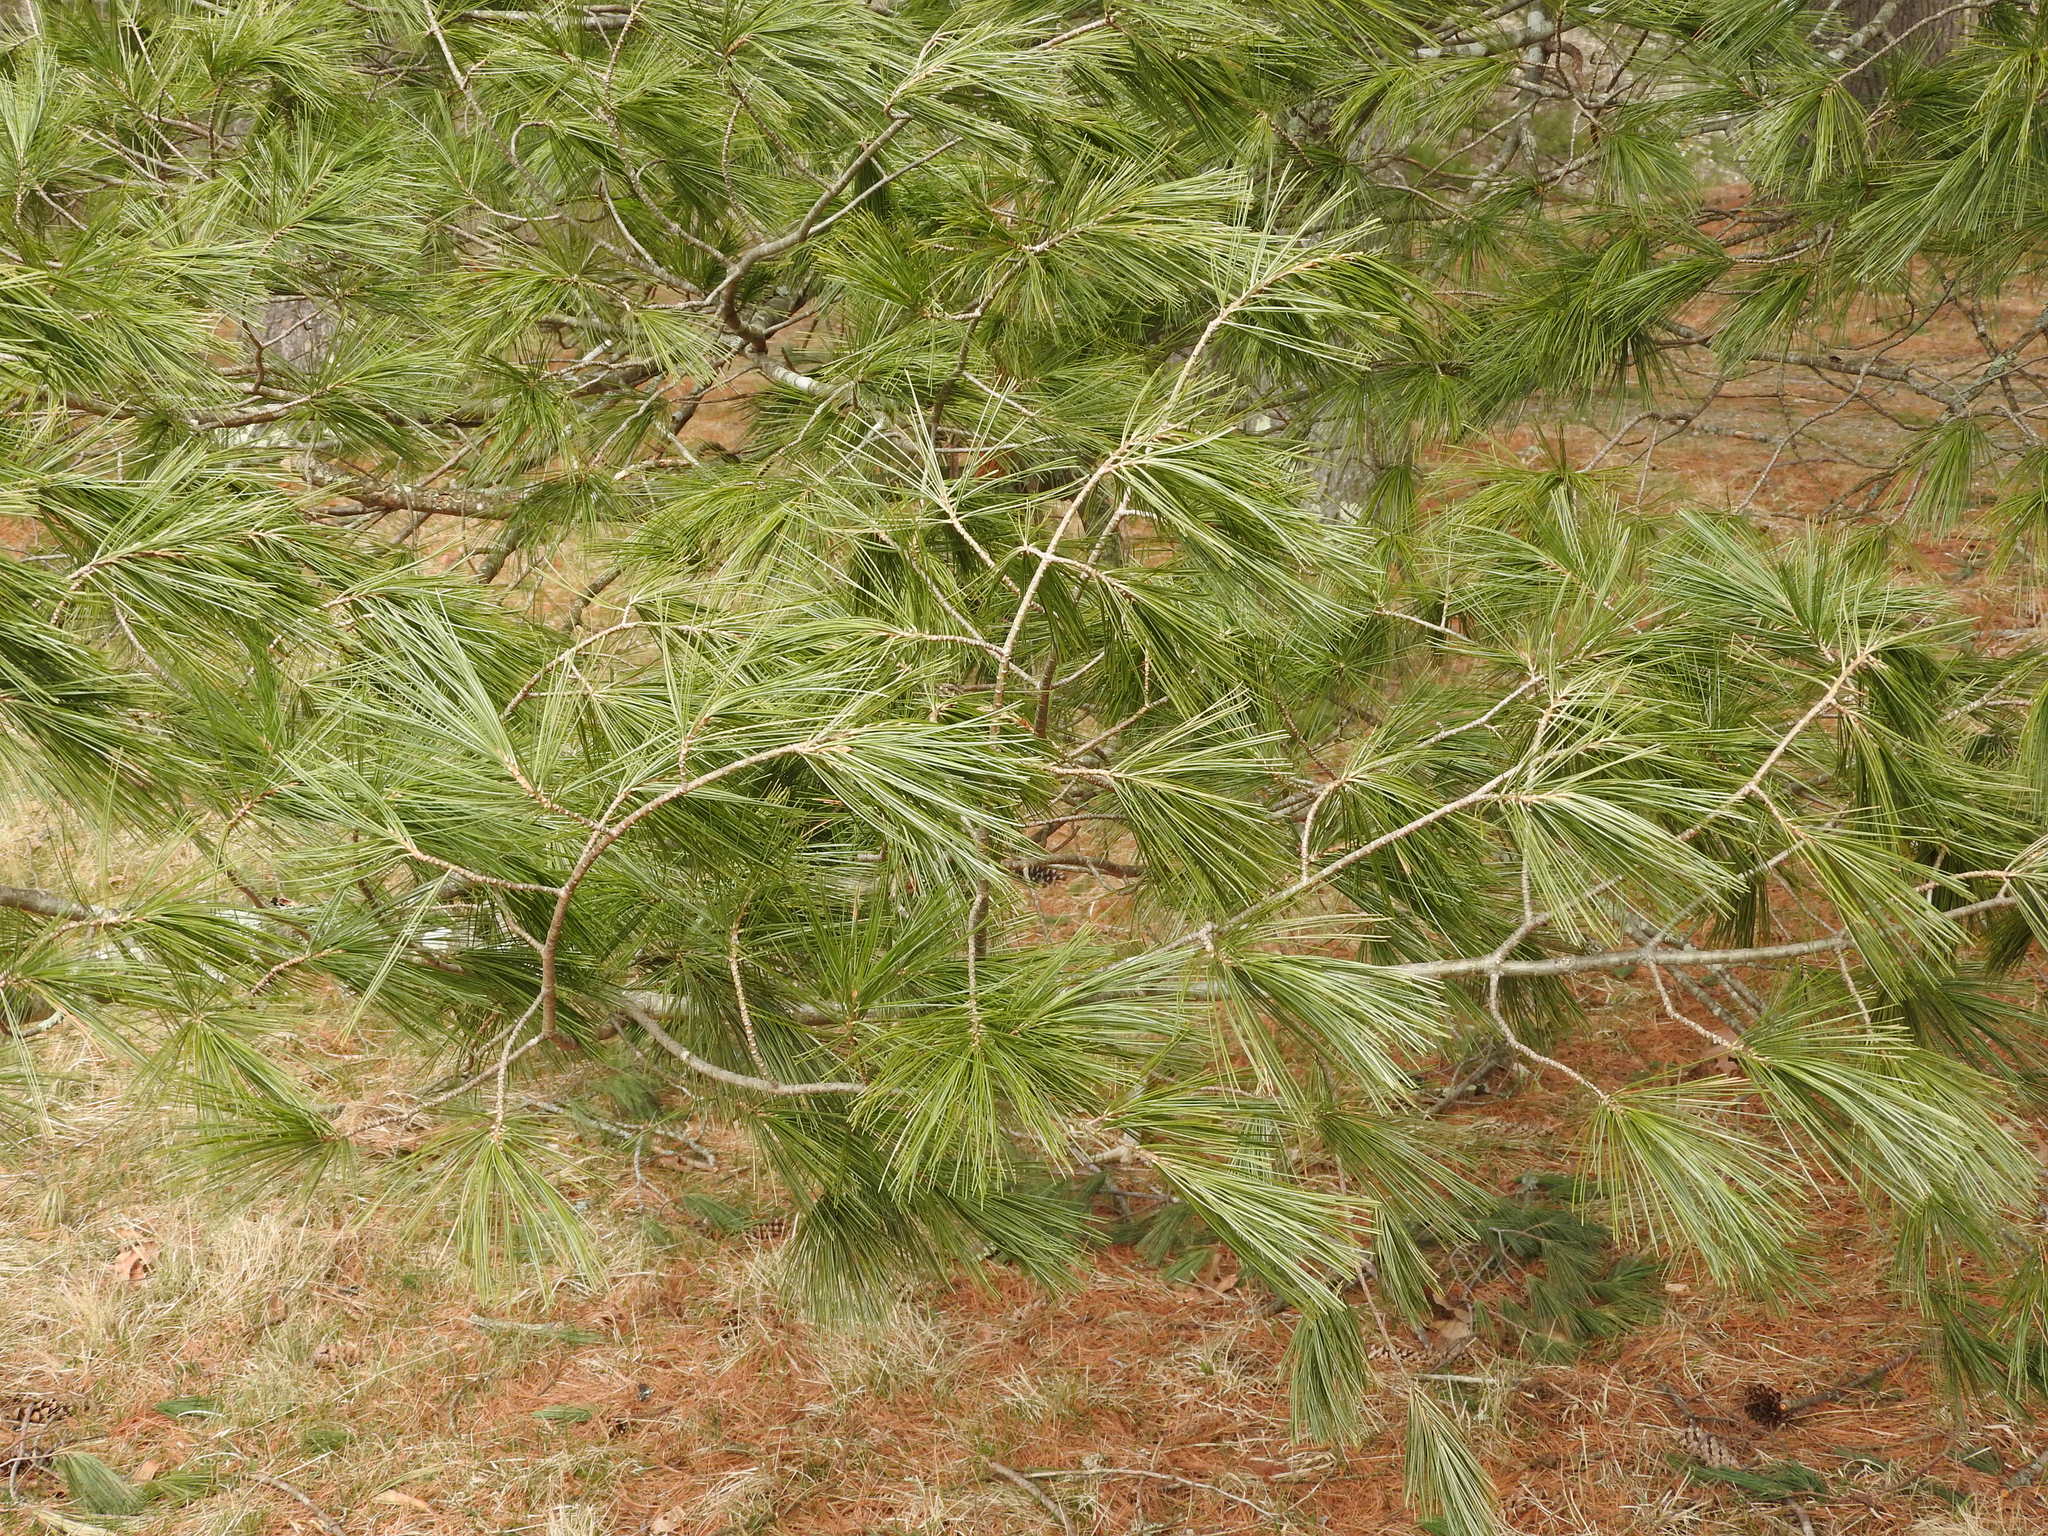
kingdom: Plantae
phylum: Tracheophyta
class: Pinopsida
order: Pinales
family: Pinaceae
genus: Pinus
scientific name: Pinus strobus
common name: Weymouth pine
